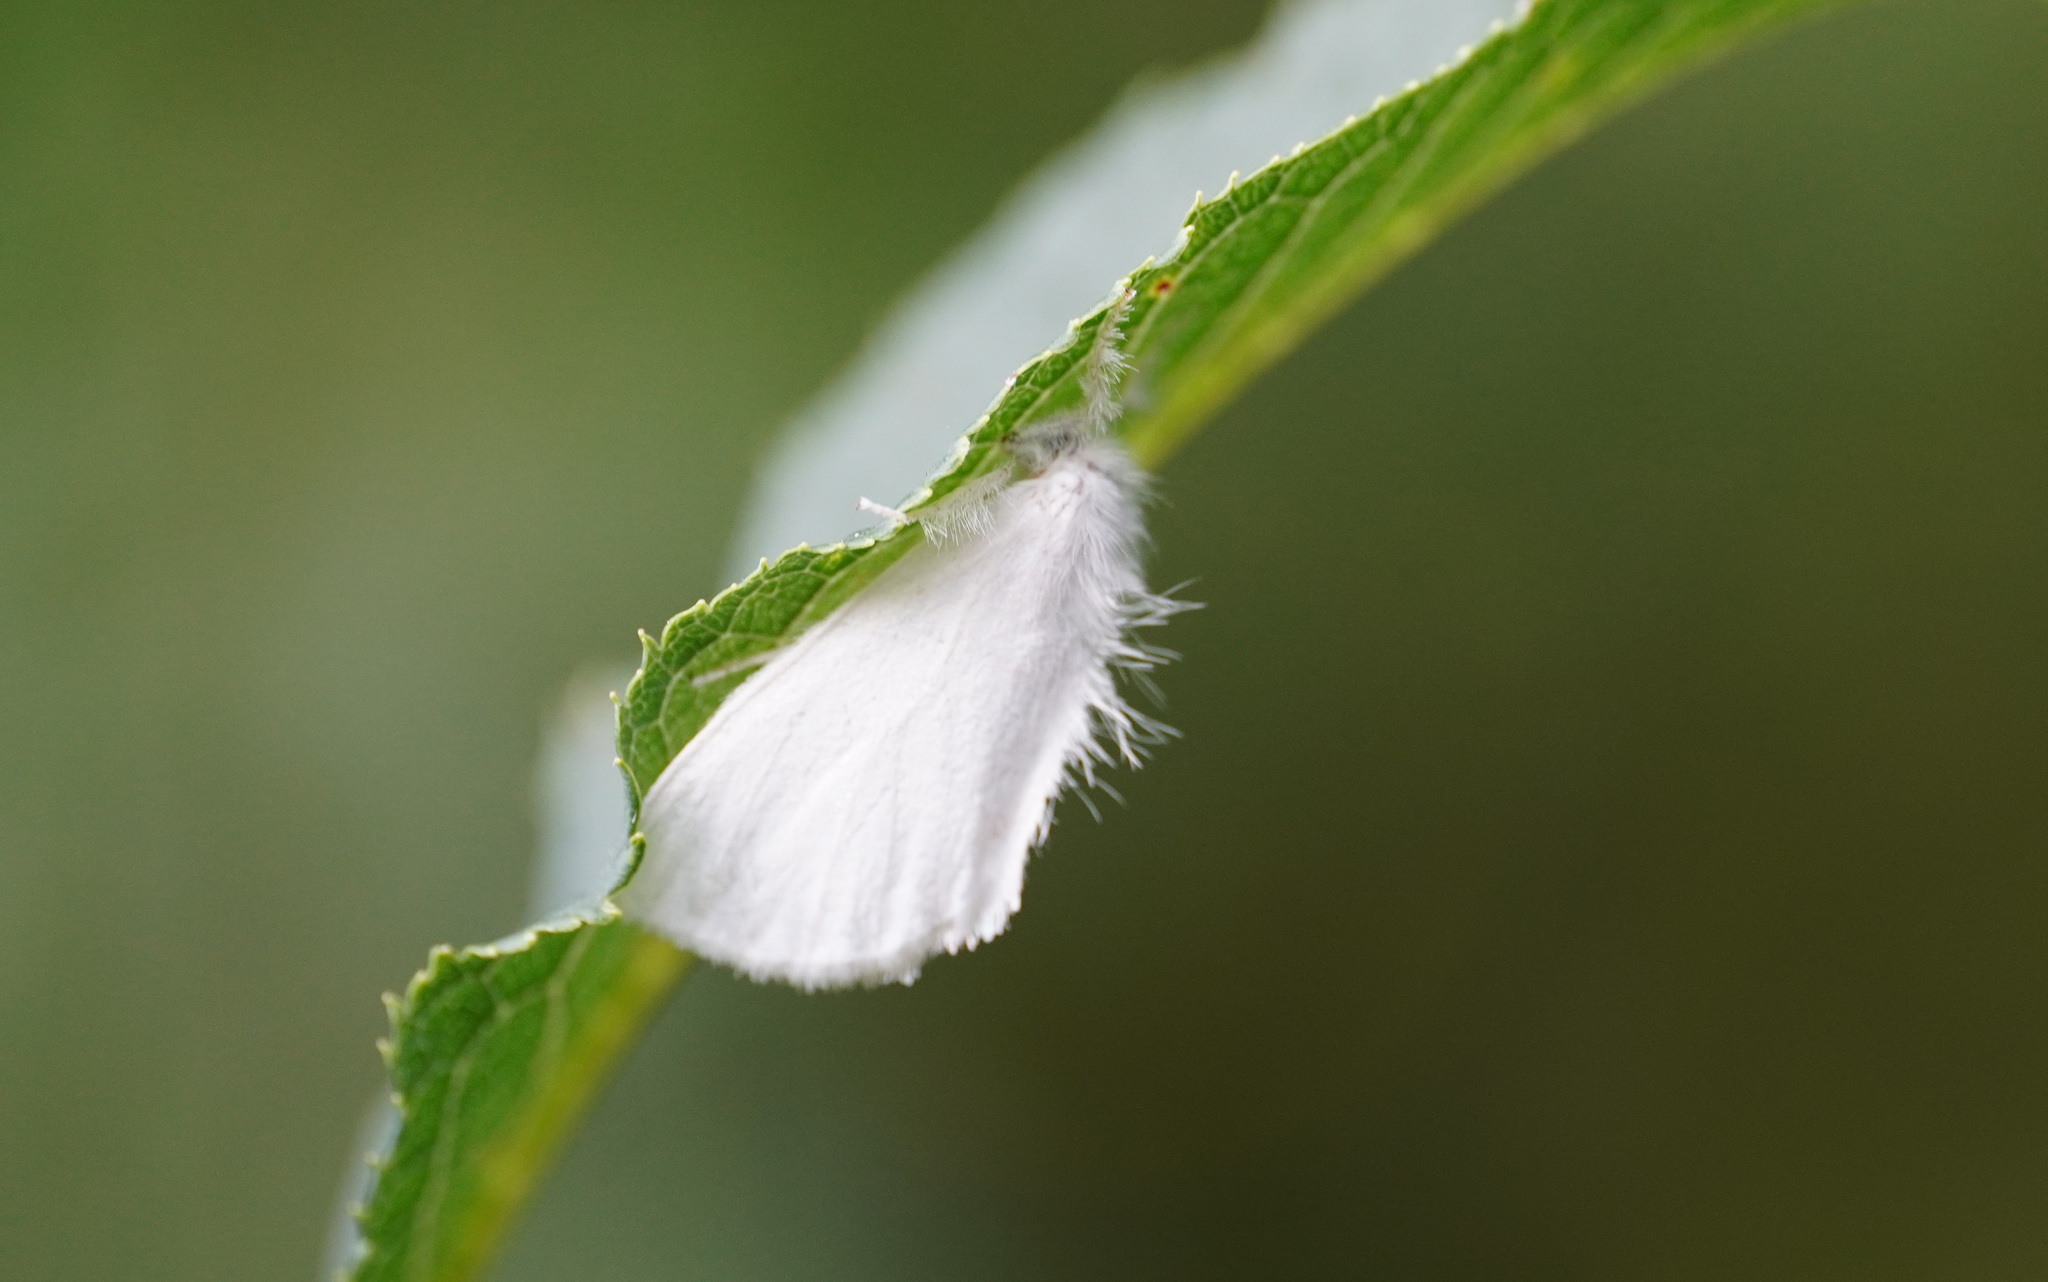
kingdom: Animalia
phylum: Arthropoda
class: Insecta
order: Lepidoptera
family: Erebidae
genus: Sphrageidus
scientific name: Sphrageidus similis
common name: Yellow-tail
